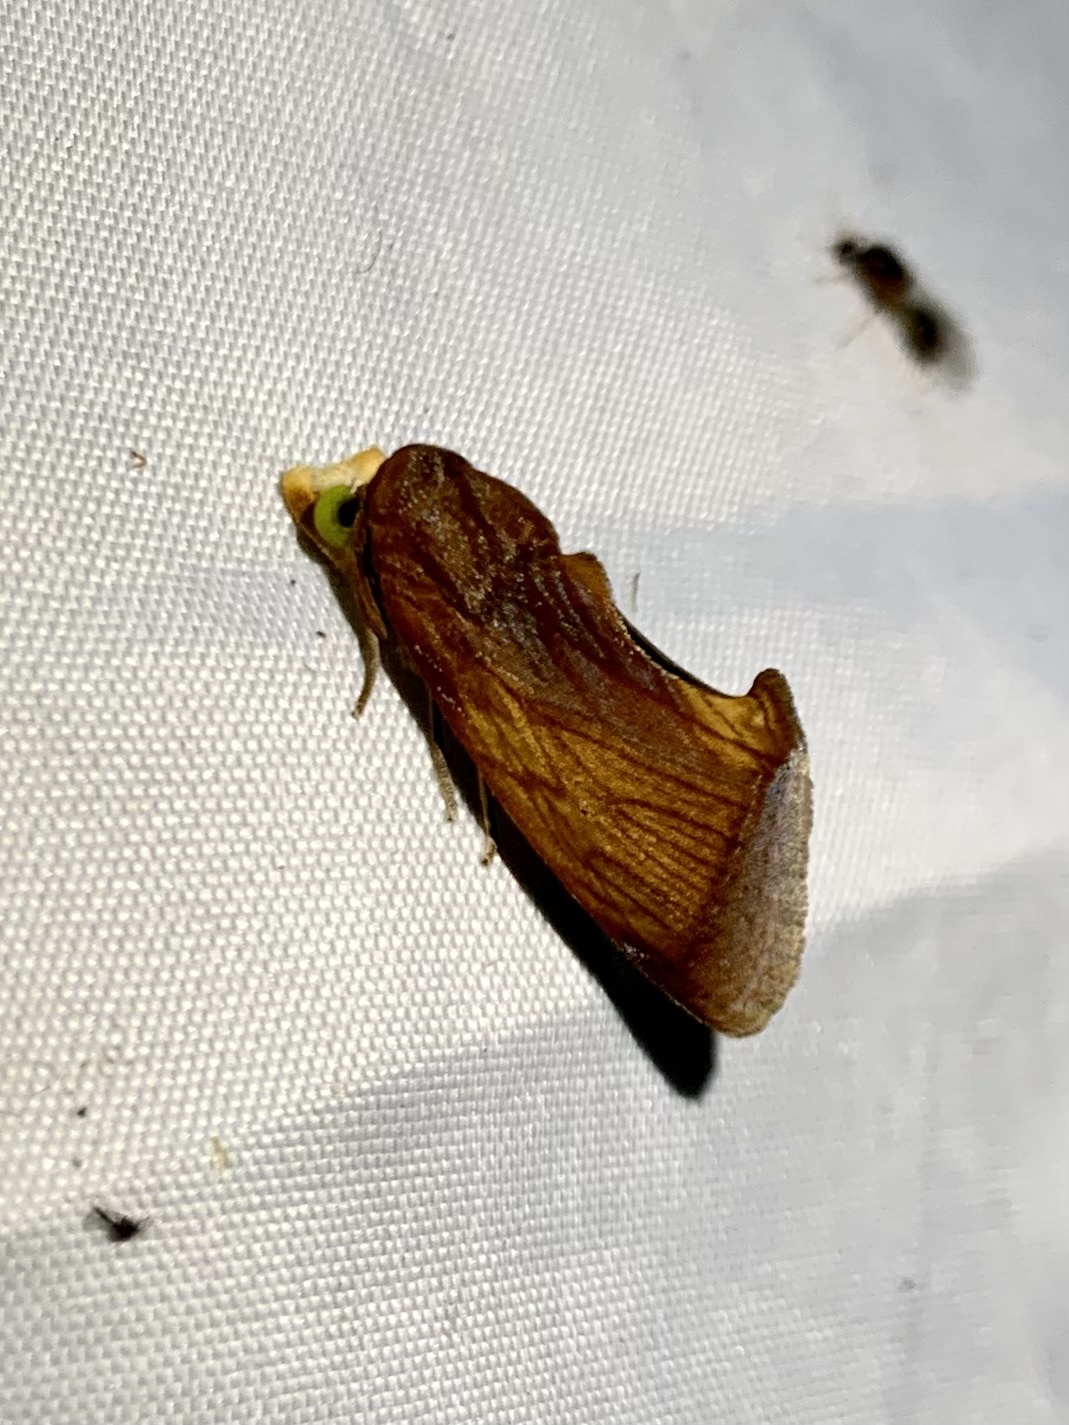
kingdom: Animalia
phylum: Arthropoda
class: Insecta
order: Lepidoptera
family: Erebidae
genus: Gonodonta
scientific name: Gonodonta incurva
